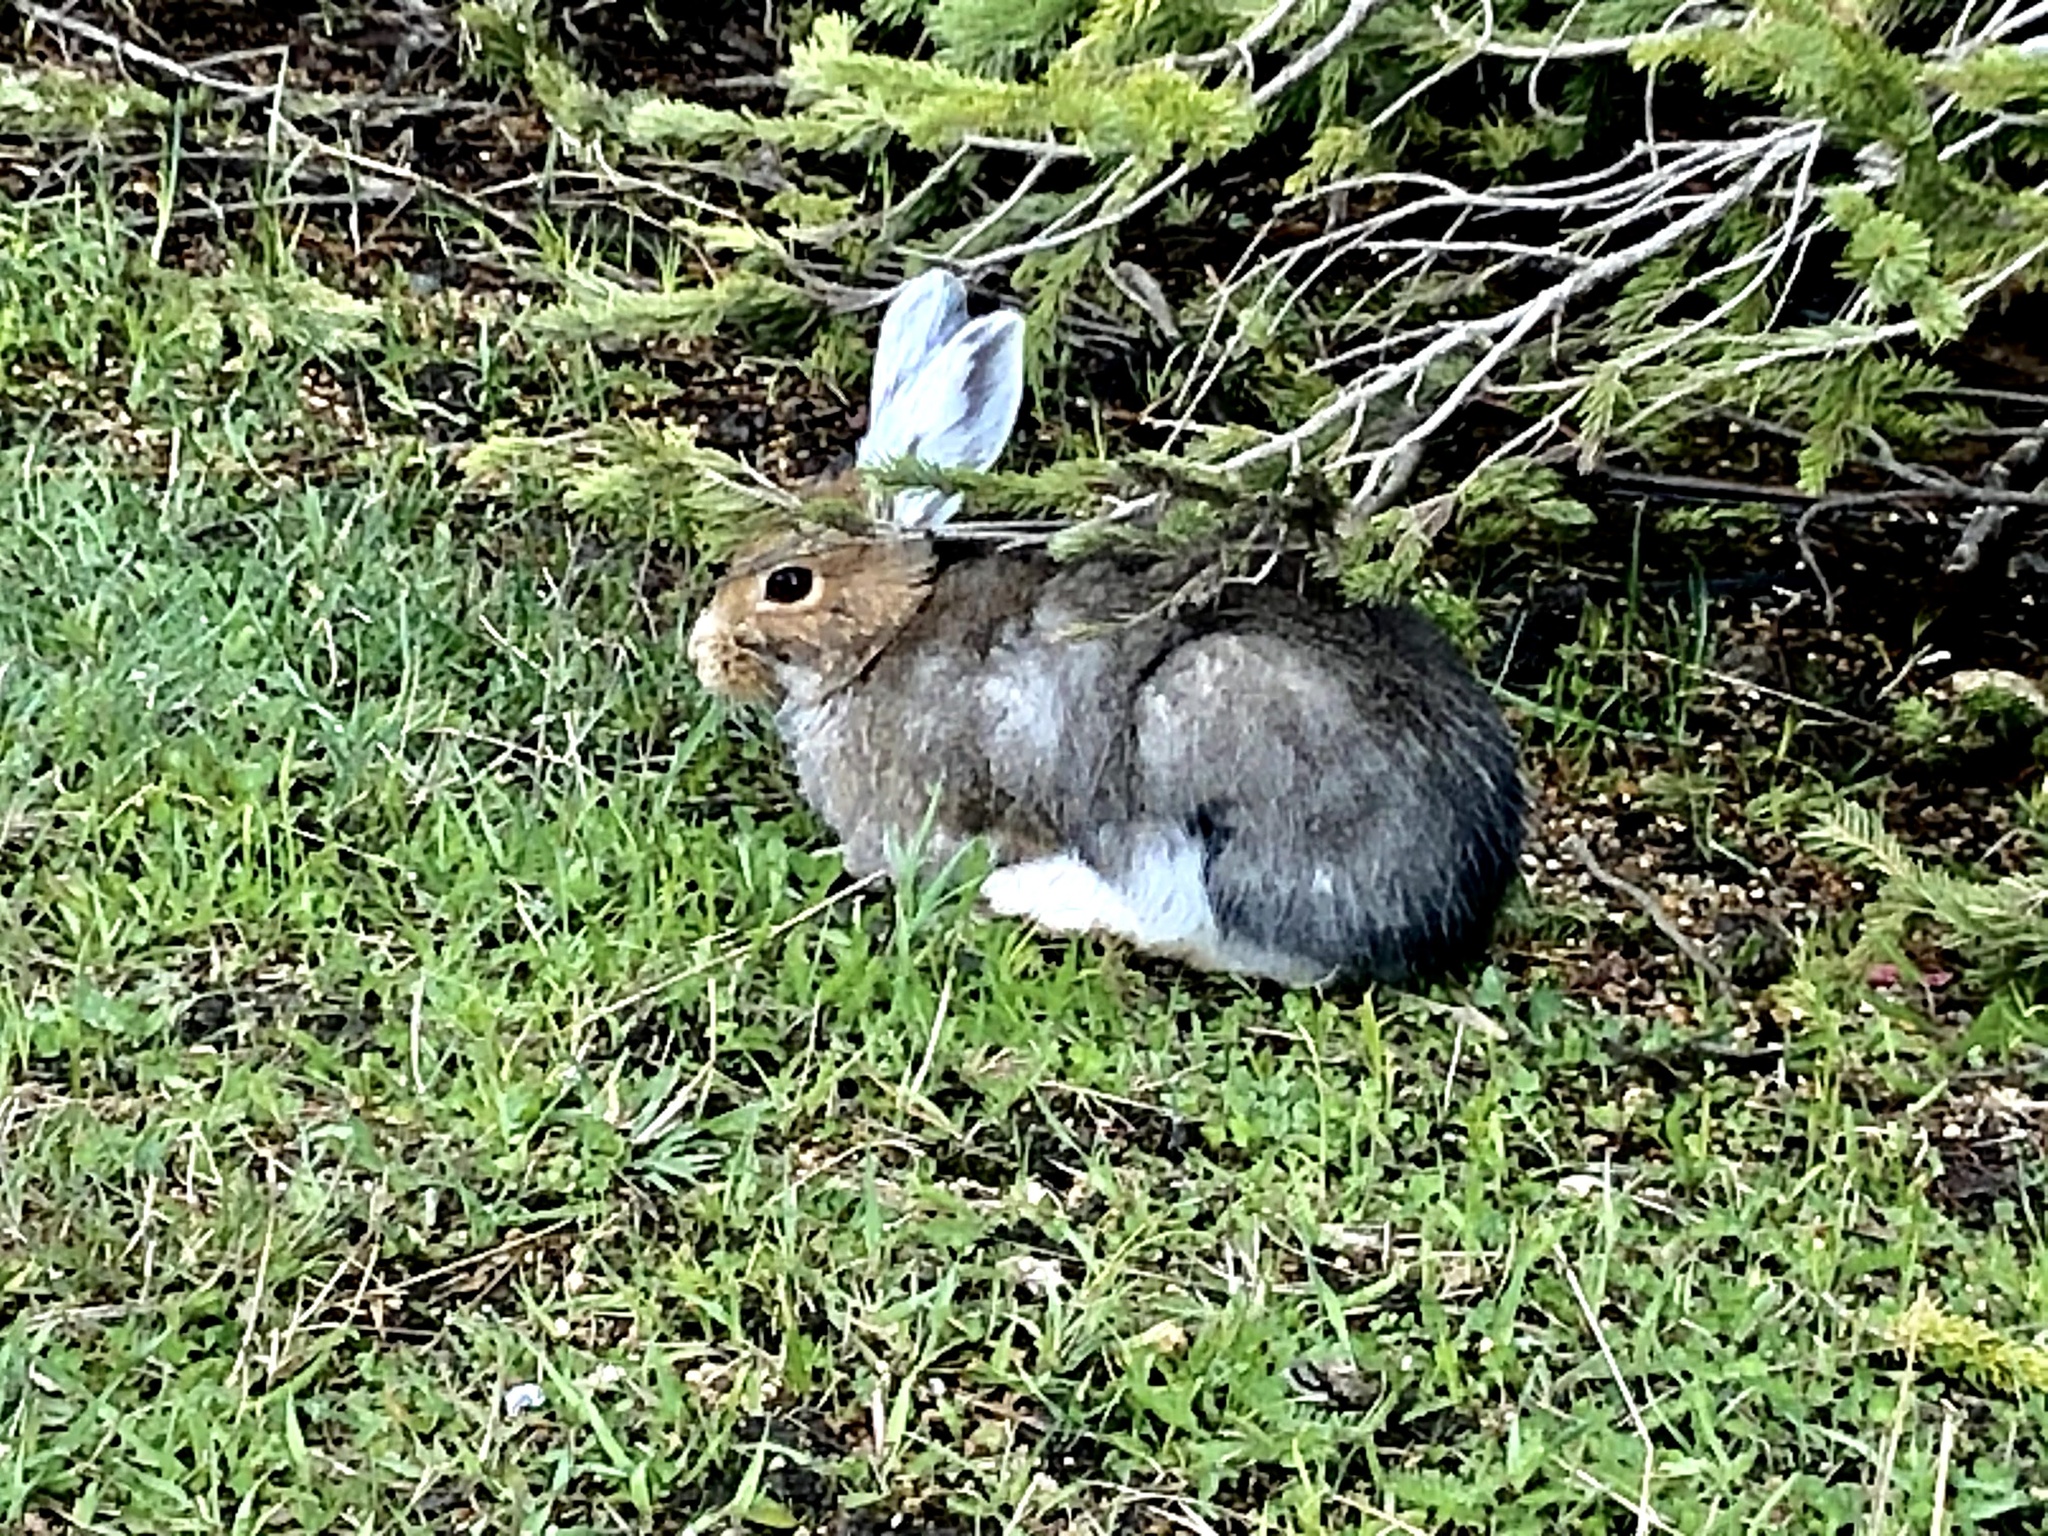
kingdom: Animalia
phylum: Chordata
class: Mammalia
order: Lagomorpha
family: Leporidae
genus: Lepus
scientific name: Lepus americanus
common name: Snowshoe hare
